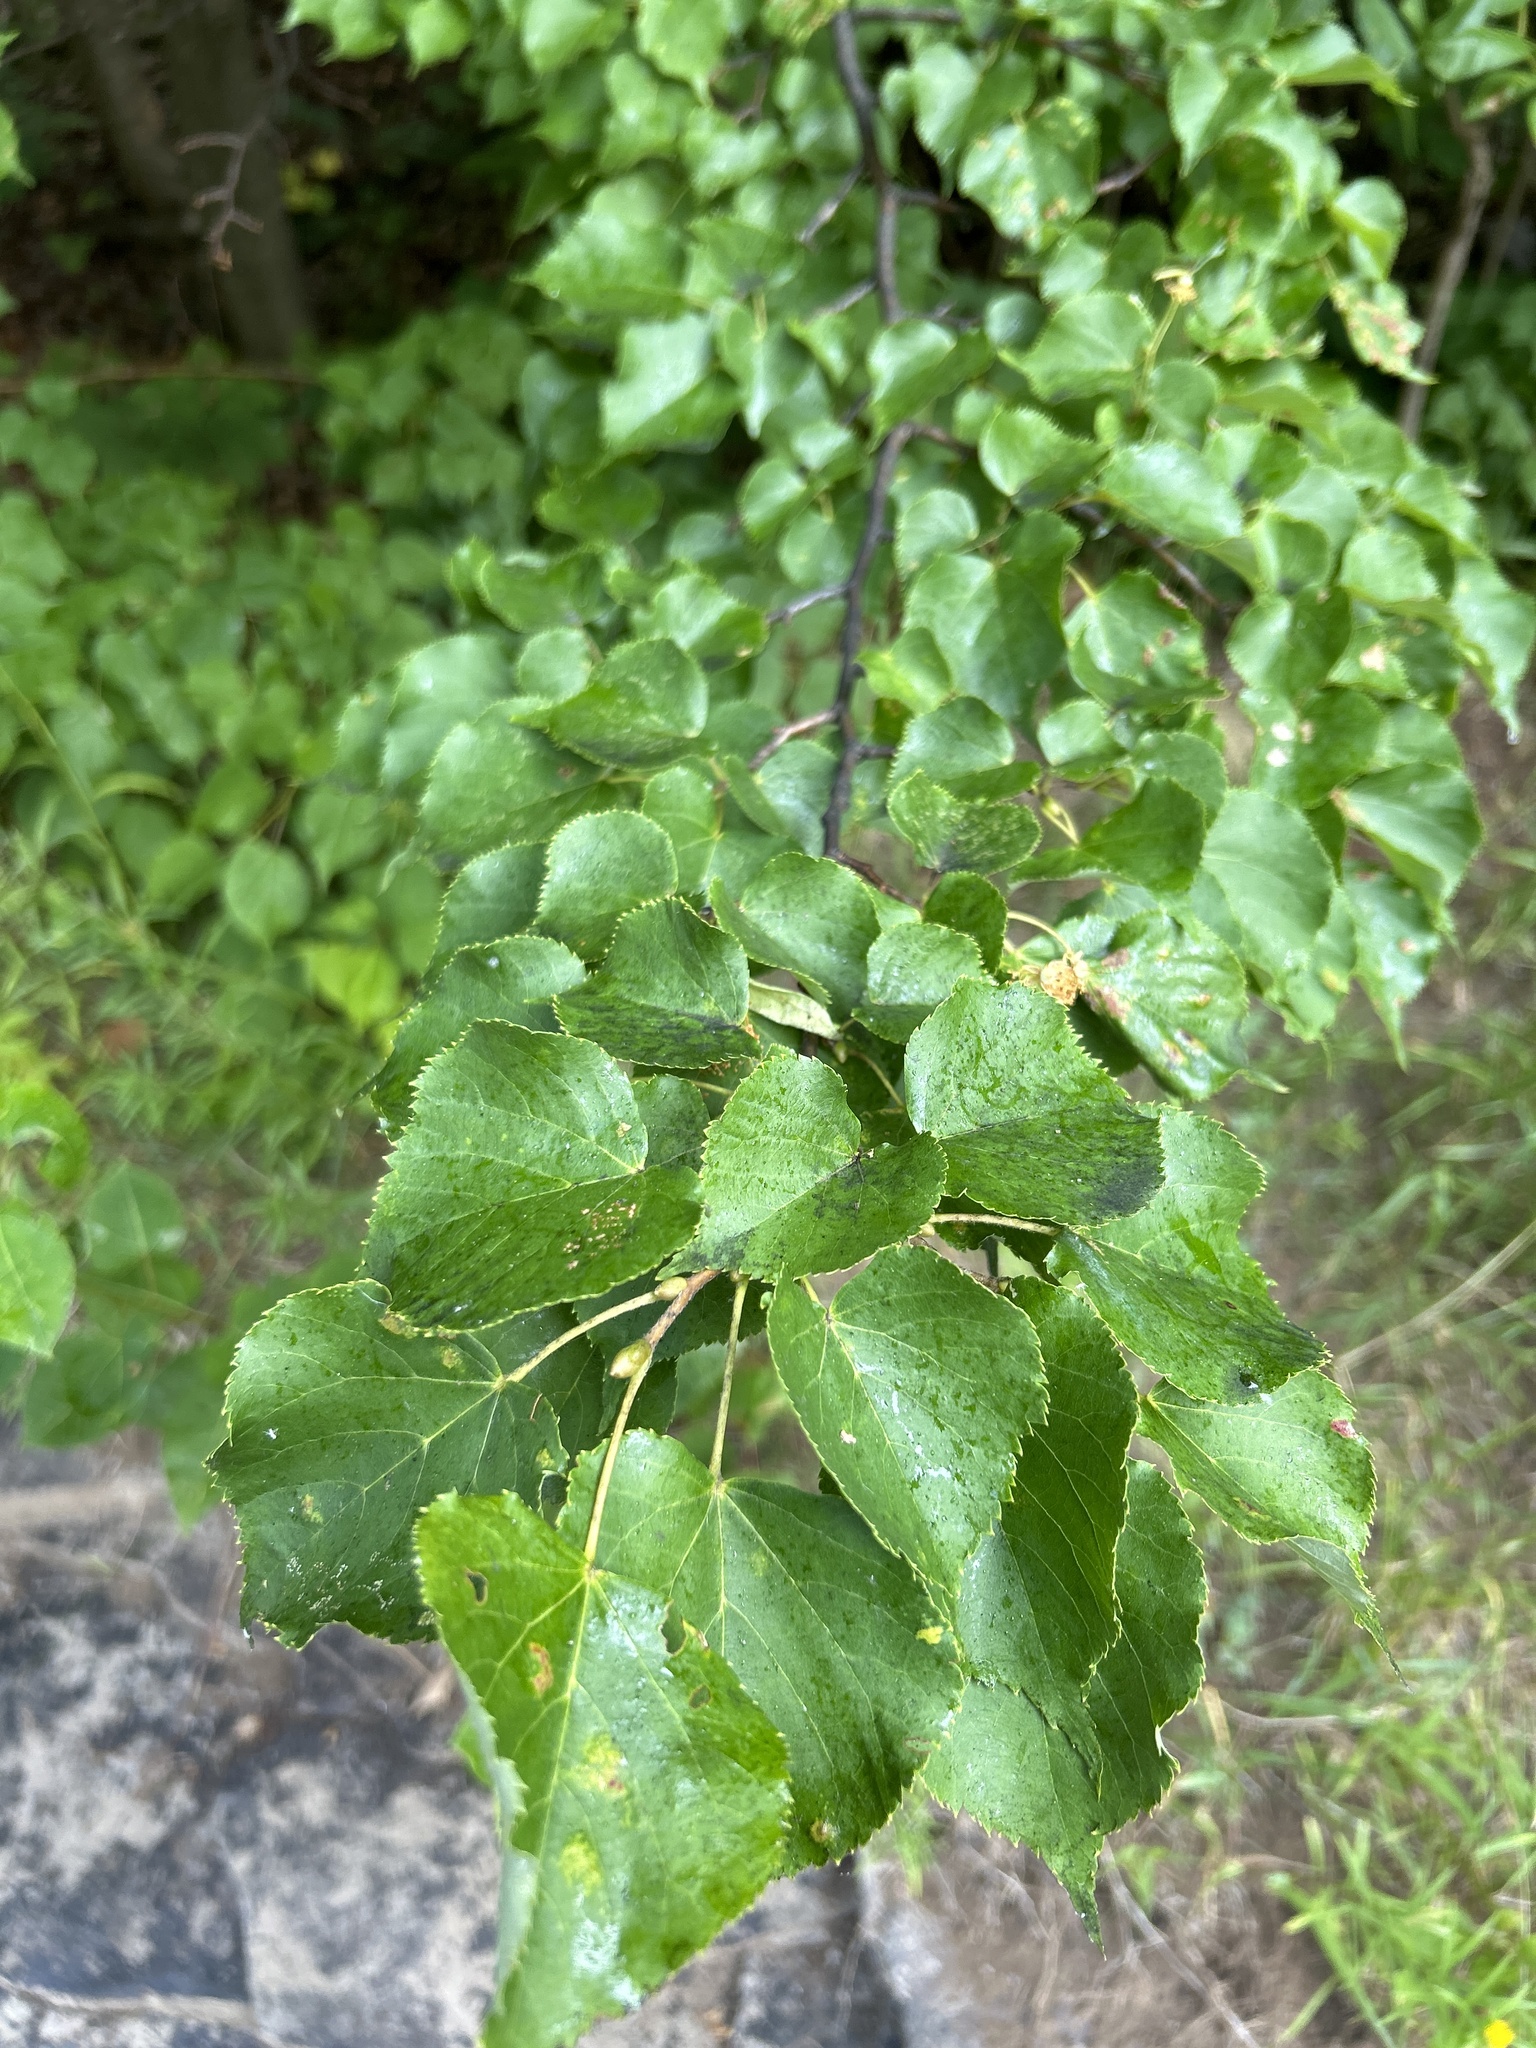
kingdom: Plantae
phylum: Tracheophyta
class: Magnoliopsida
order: Malvales
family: Malvaceae
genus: Tilia
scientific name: Tilia cordata
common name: Small-leaved lime
